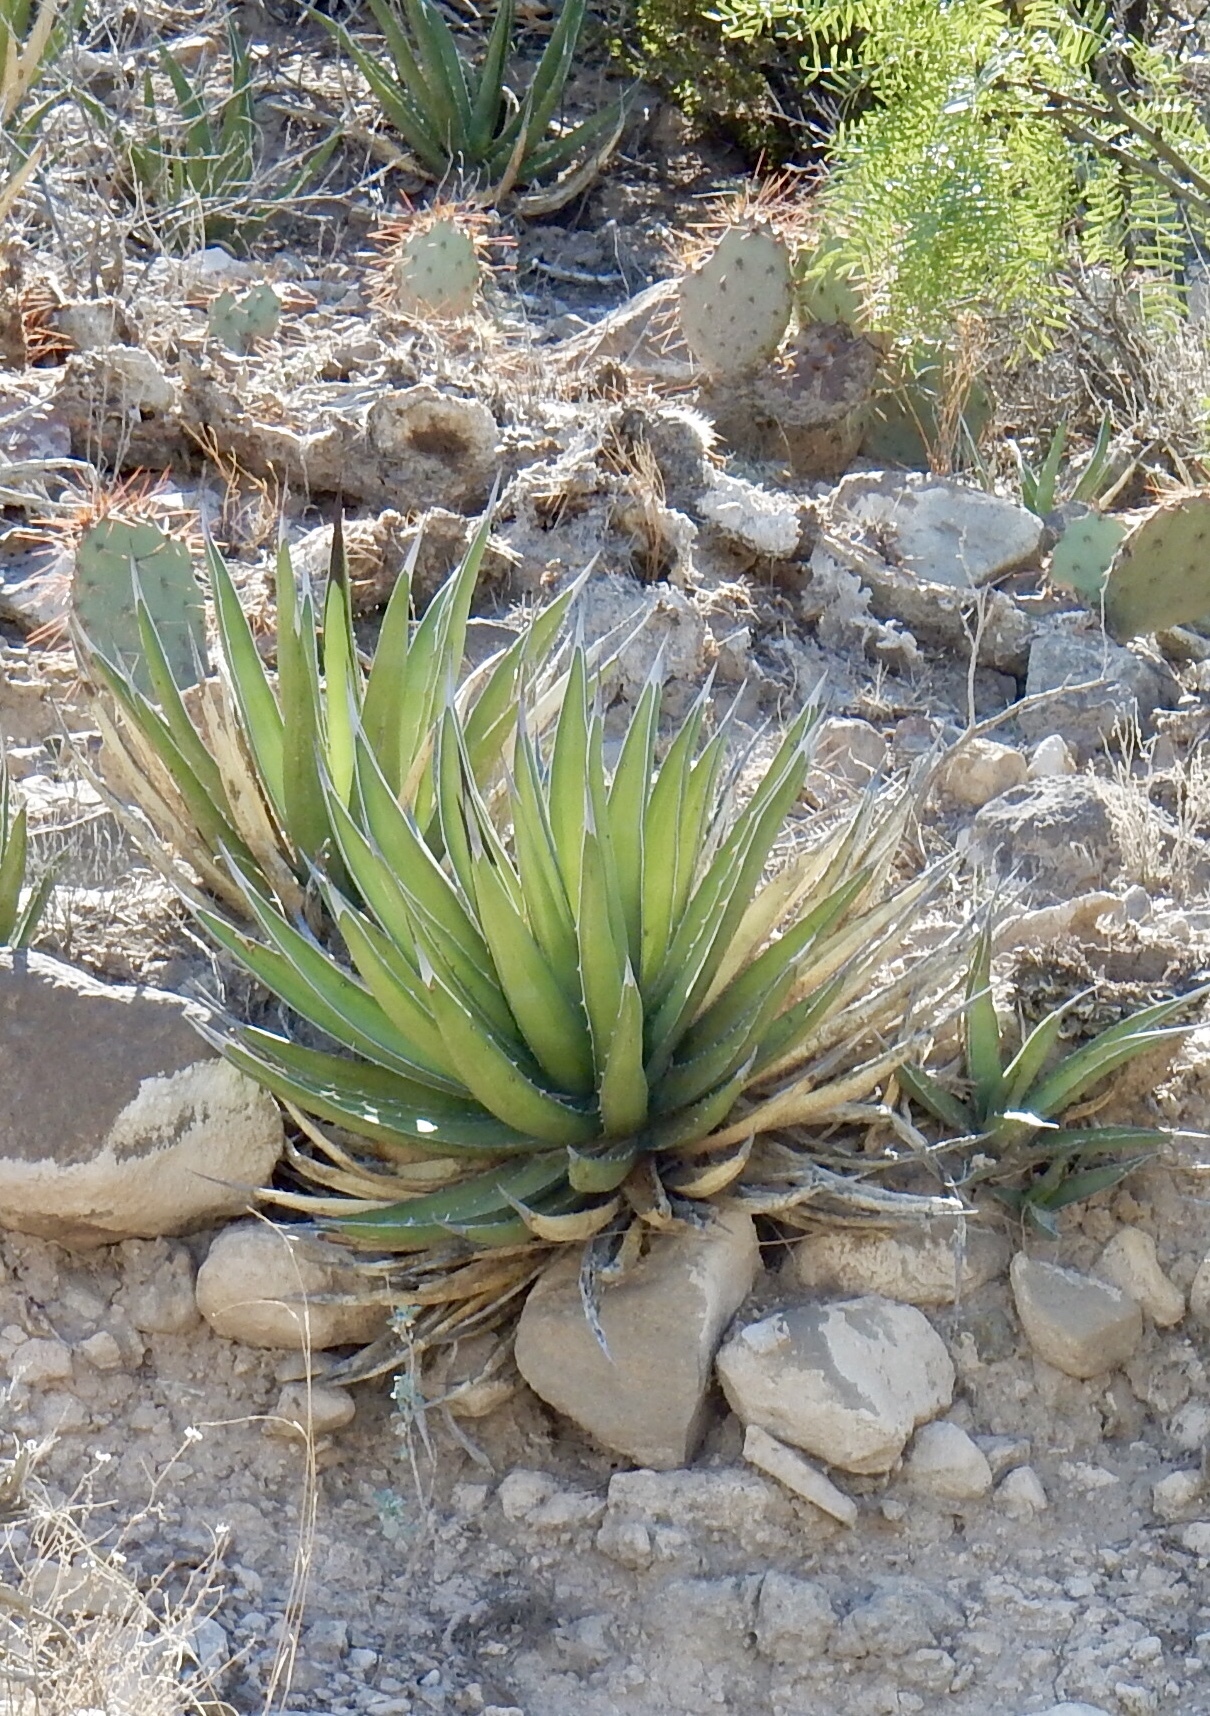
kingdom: Plantae
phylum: Tracheophyta
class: Liliopsida
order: Asparagales
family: Asparagaceae
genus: Agave
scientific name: Agave lechuguilla
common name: Lecheguilla agave
